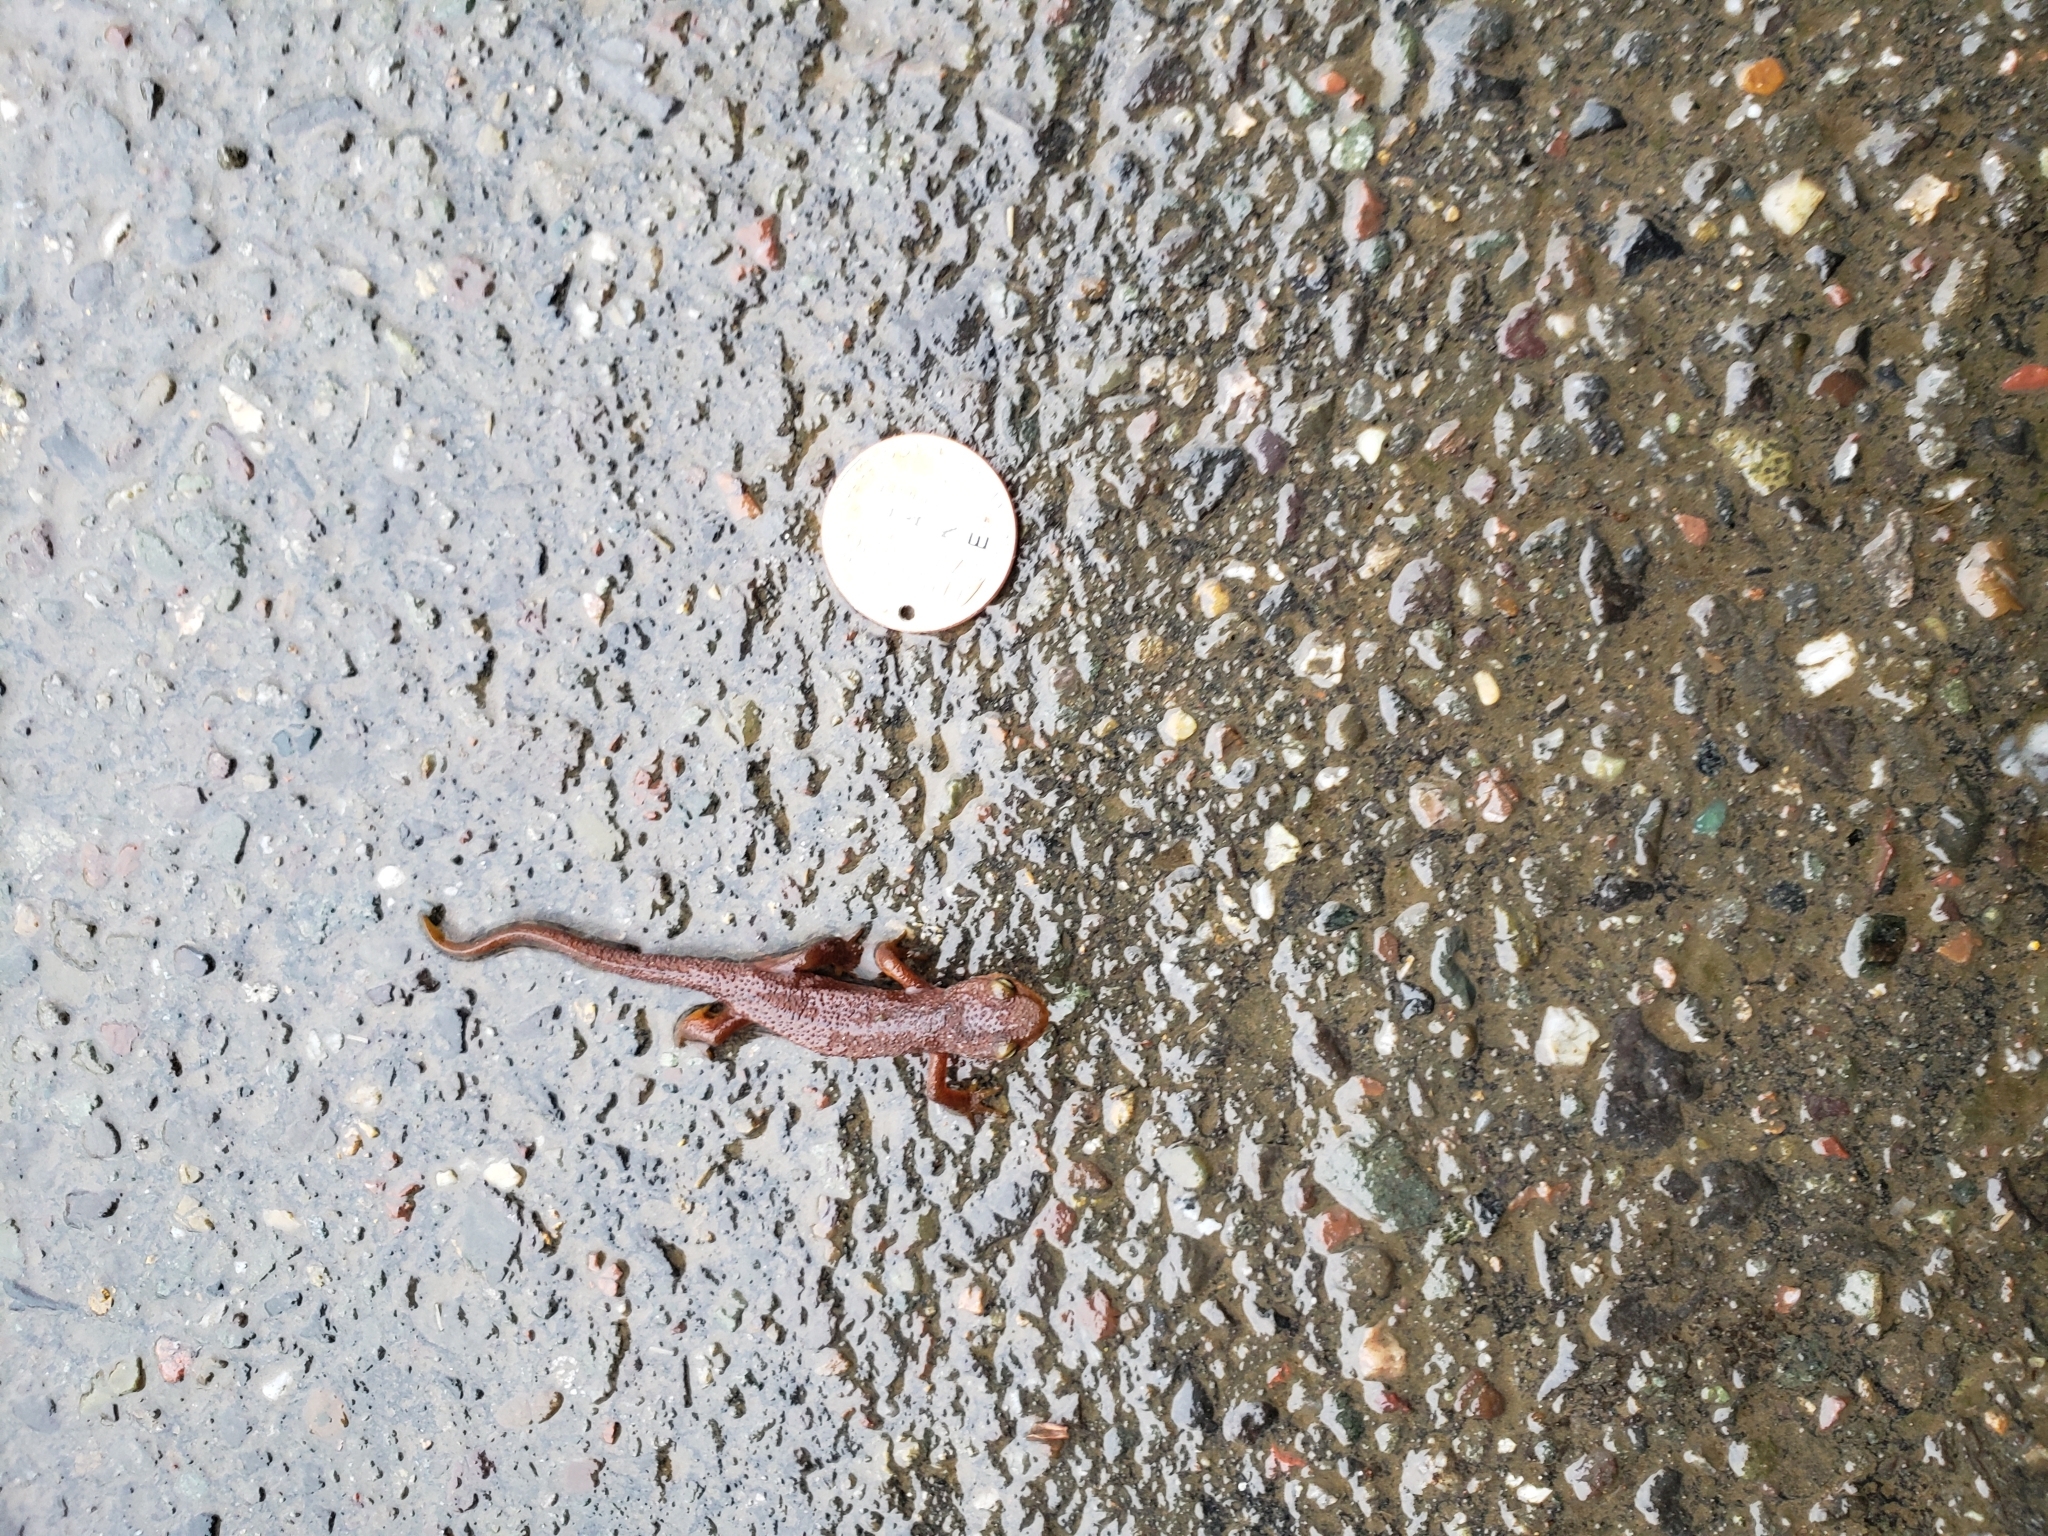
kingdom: Animalia
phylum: Chordata
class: Amphibia
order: Caudata
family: Salamandridae
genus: Taricha
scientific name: Taricha torosa
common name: California newt
